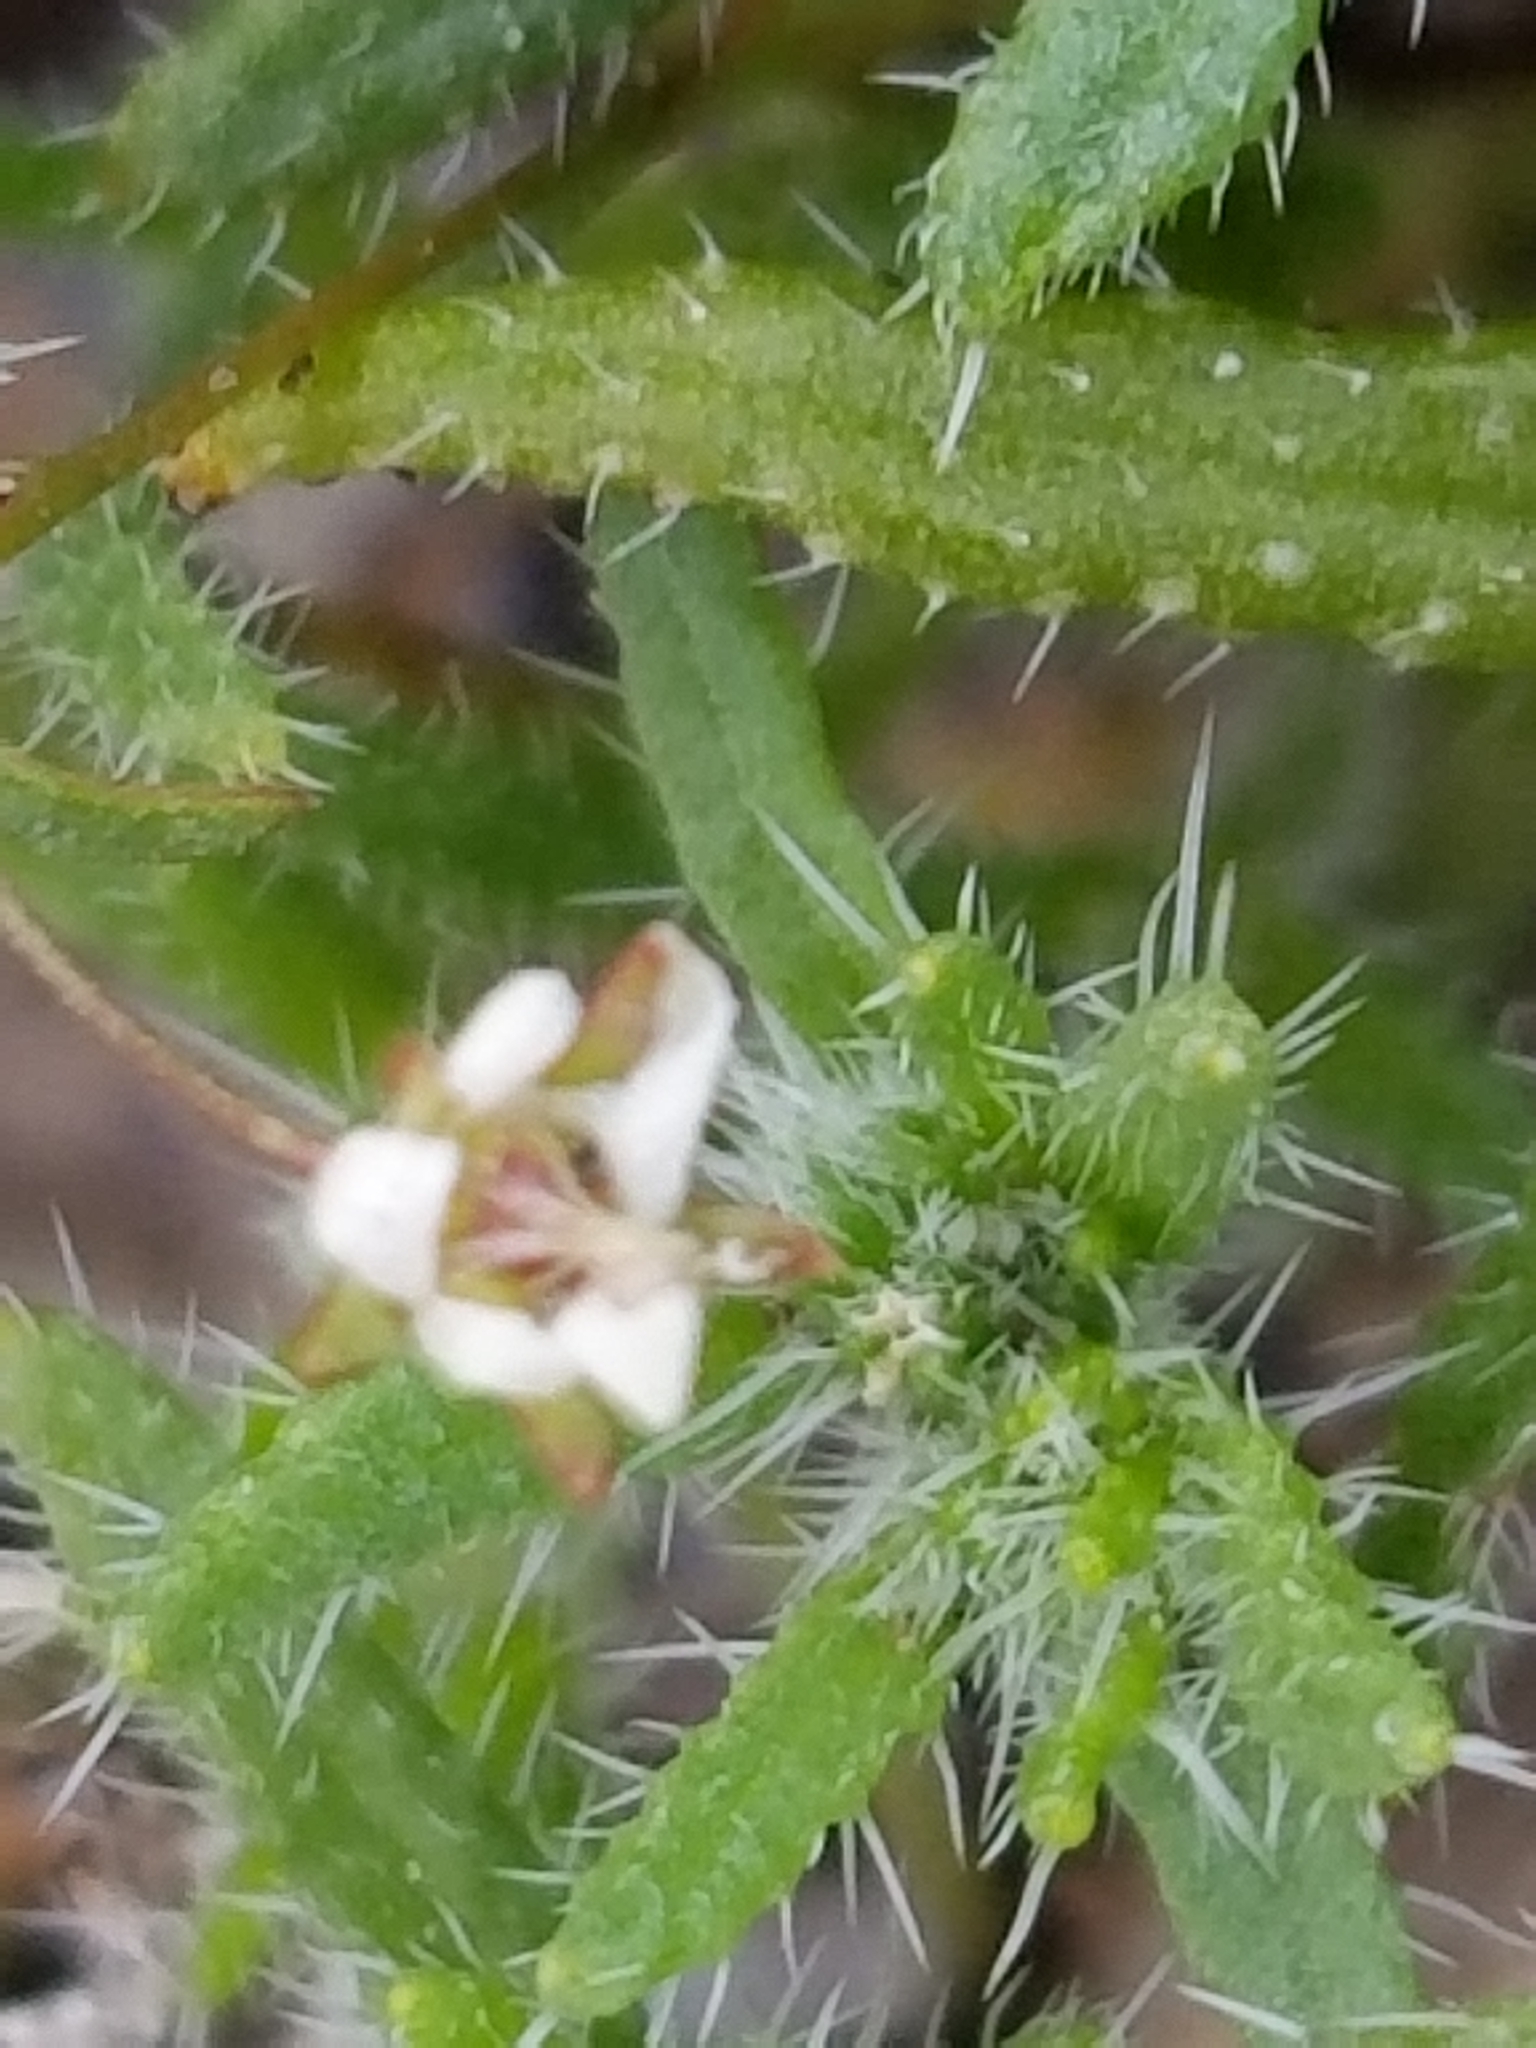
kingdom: Plantae
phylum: Tracheophyta
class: Magnoliopsida
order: Boraginales
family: Boraginaceae
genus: Cryptantha
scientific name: Cryptantha maritima
